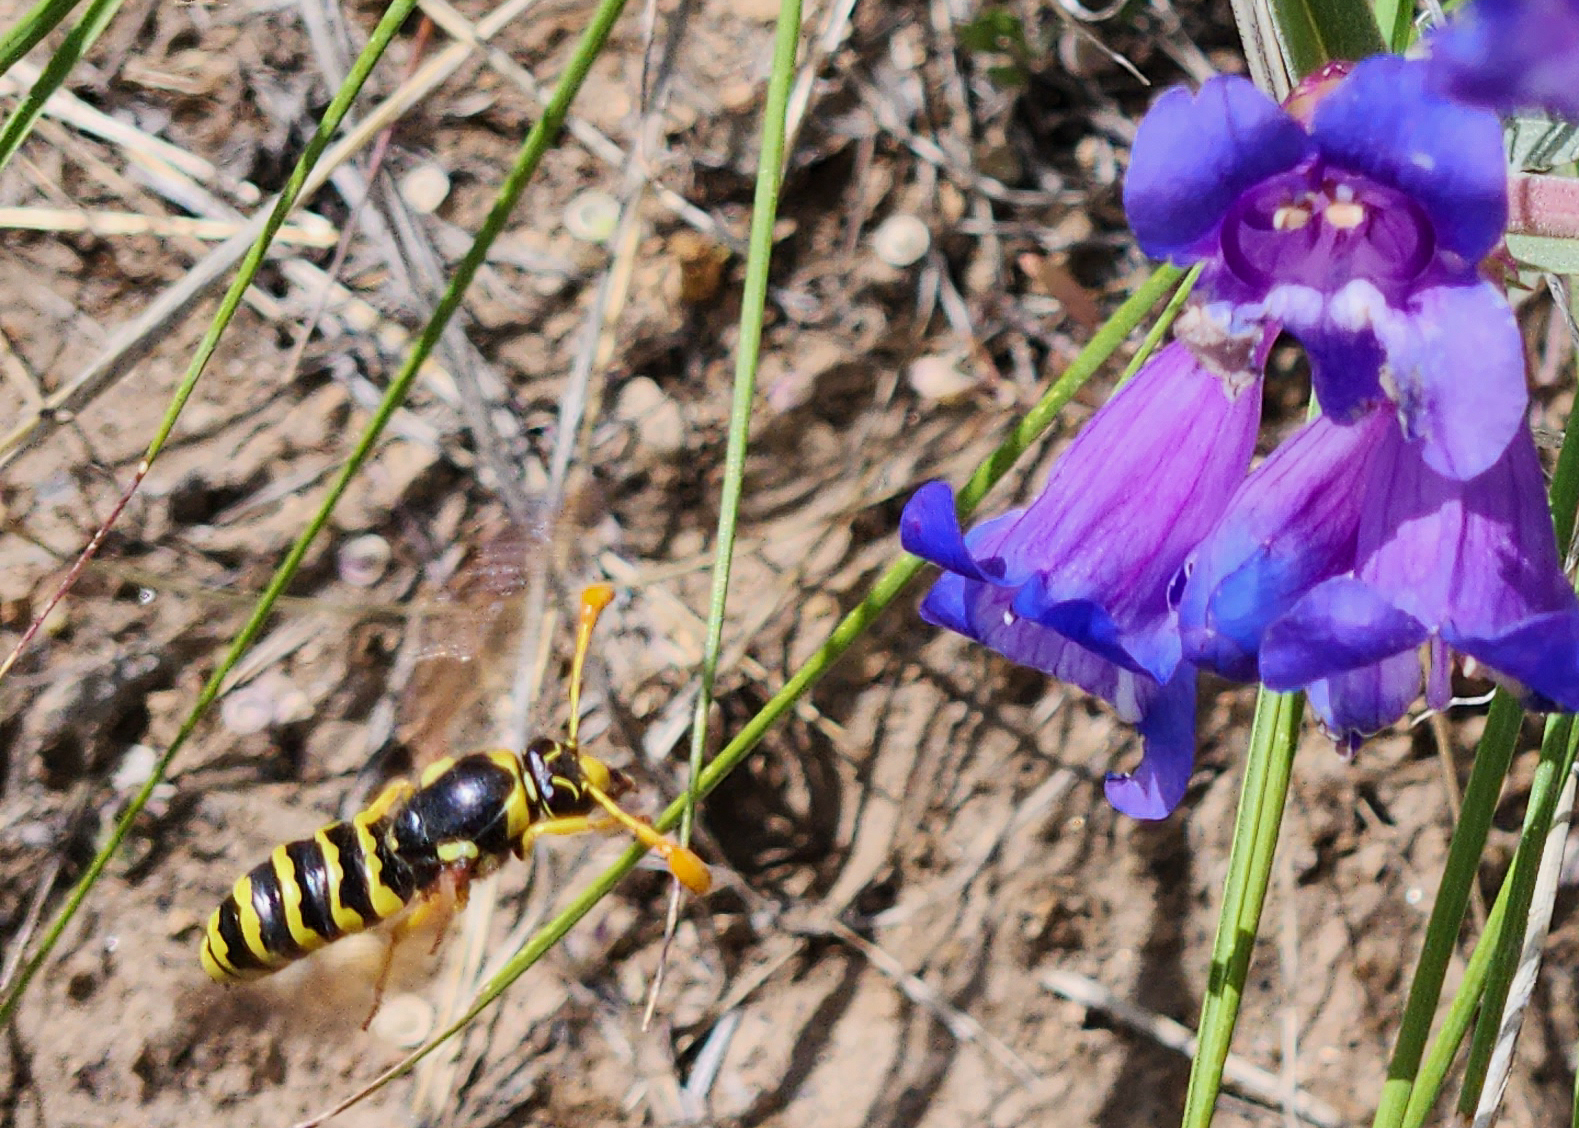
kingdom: Animalia
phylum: Arthropoda
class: Insecta
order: Hymenoptera
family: Masaridae
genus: Pseudomasaris
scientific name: Pseudomasaris vespoides
